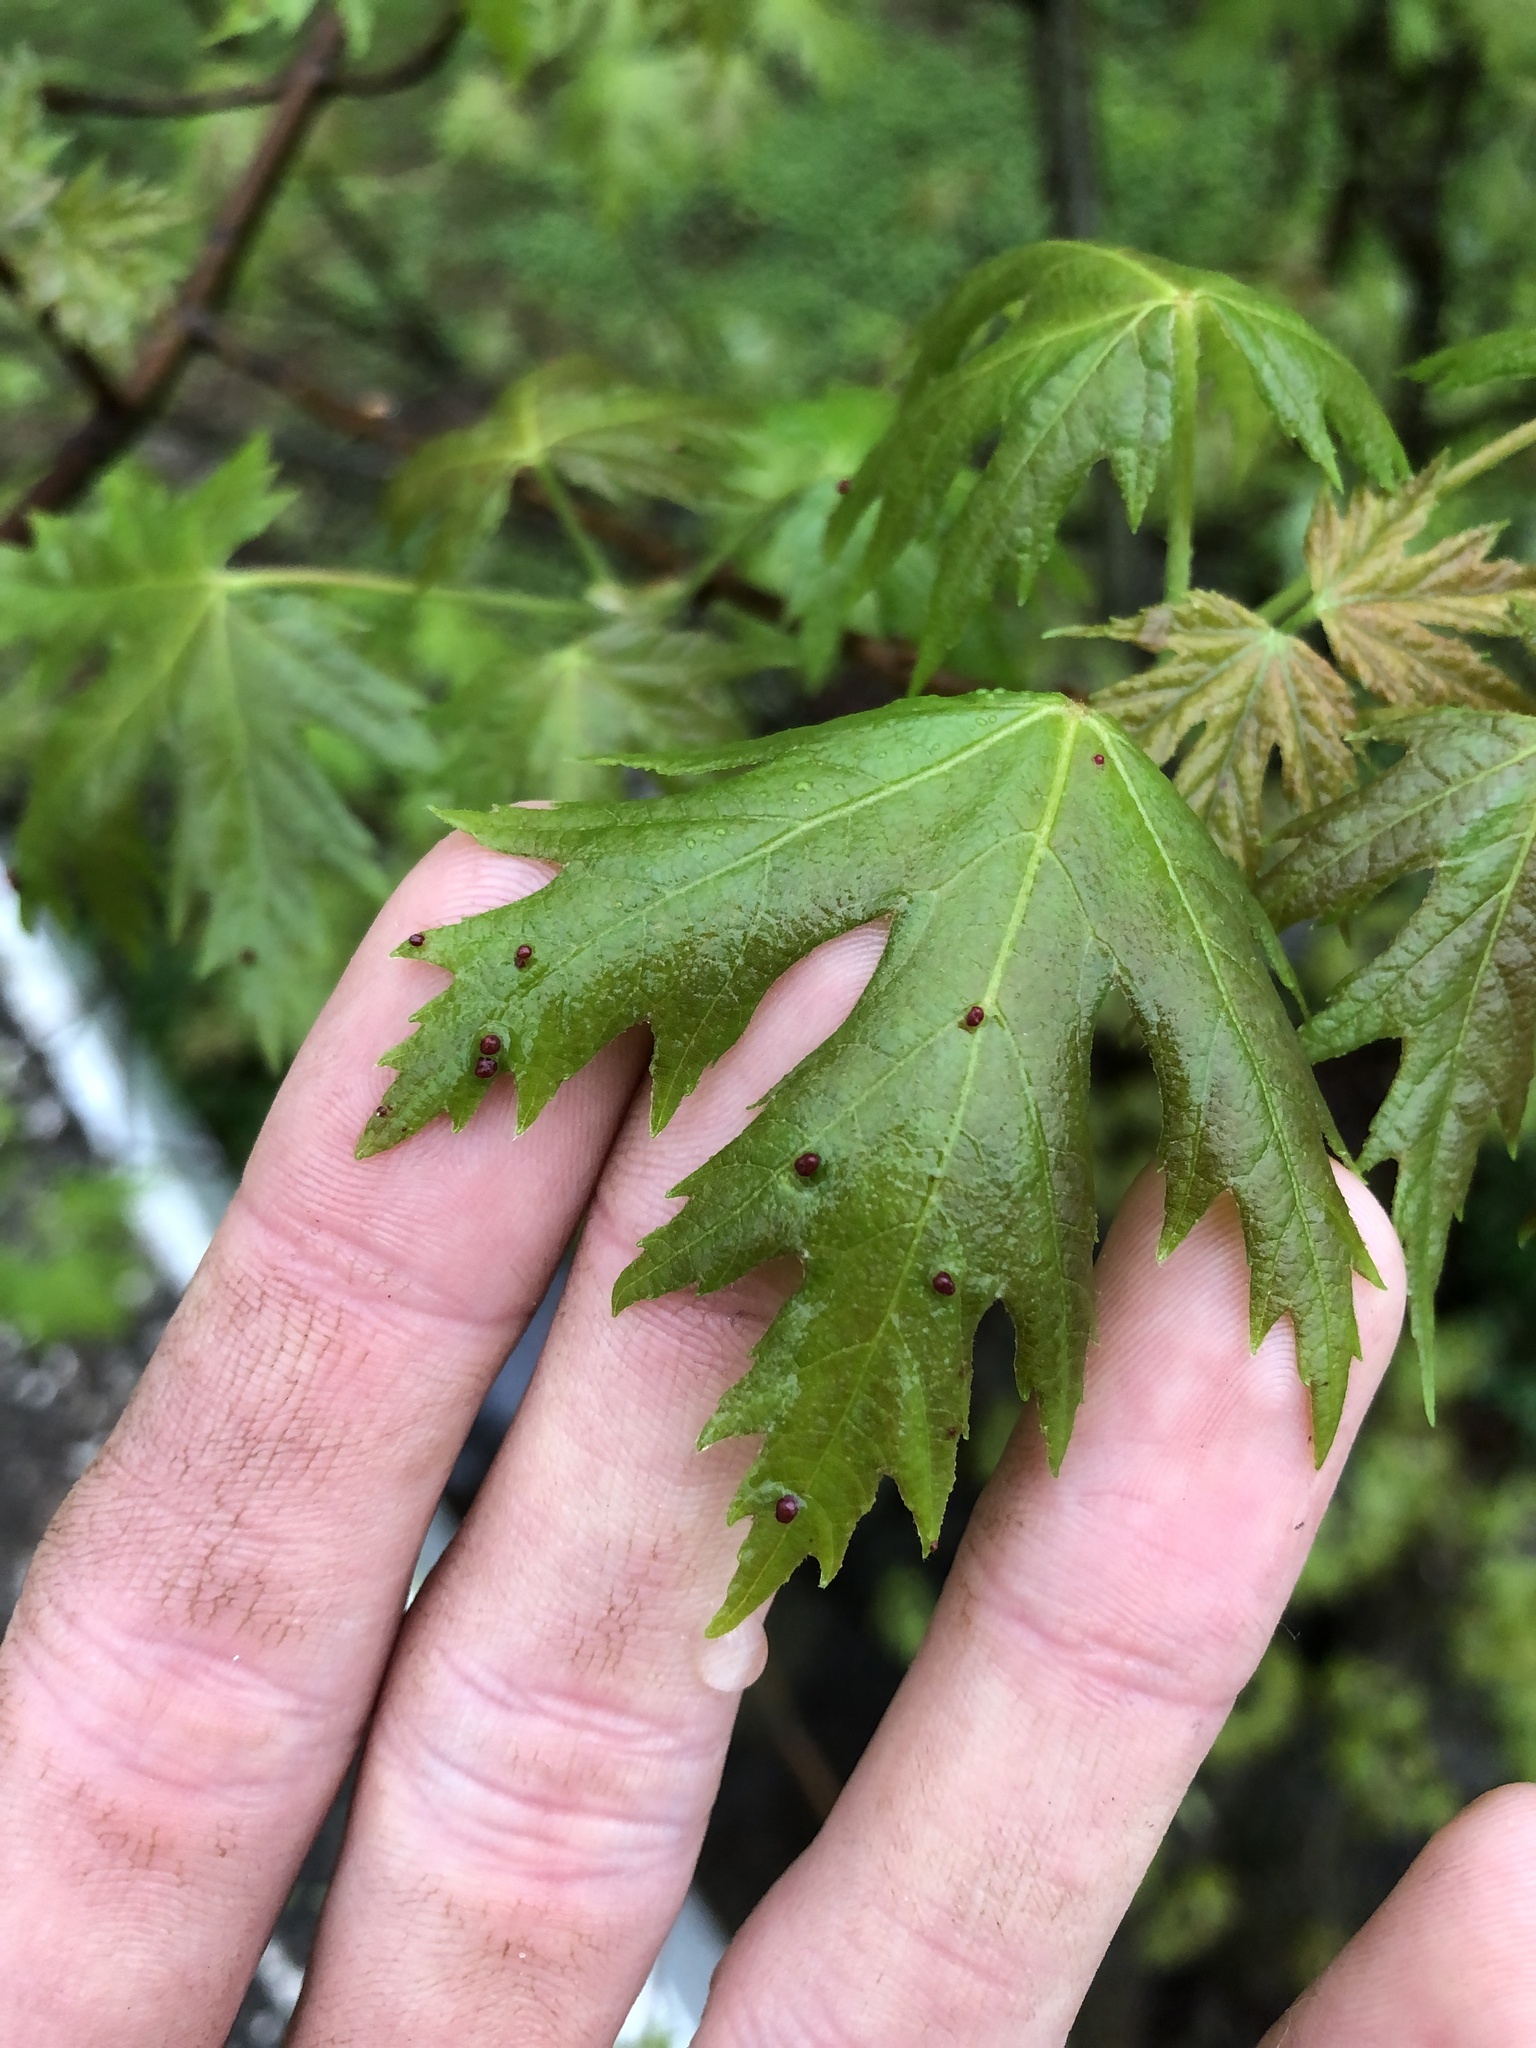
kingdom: Animalia
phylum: Arthropoda
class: Arachnida
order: Trombidiformes
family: Eriophyidae
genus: Vasates
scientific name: Vasates quadripedes
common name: Maple bladder gall mite
